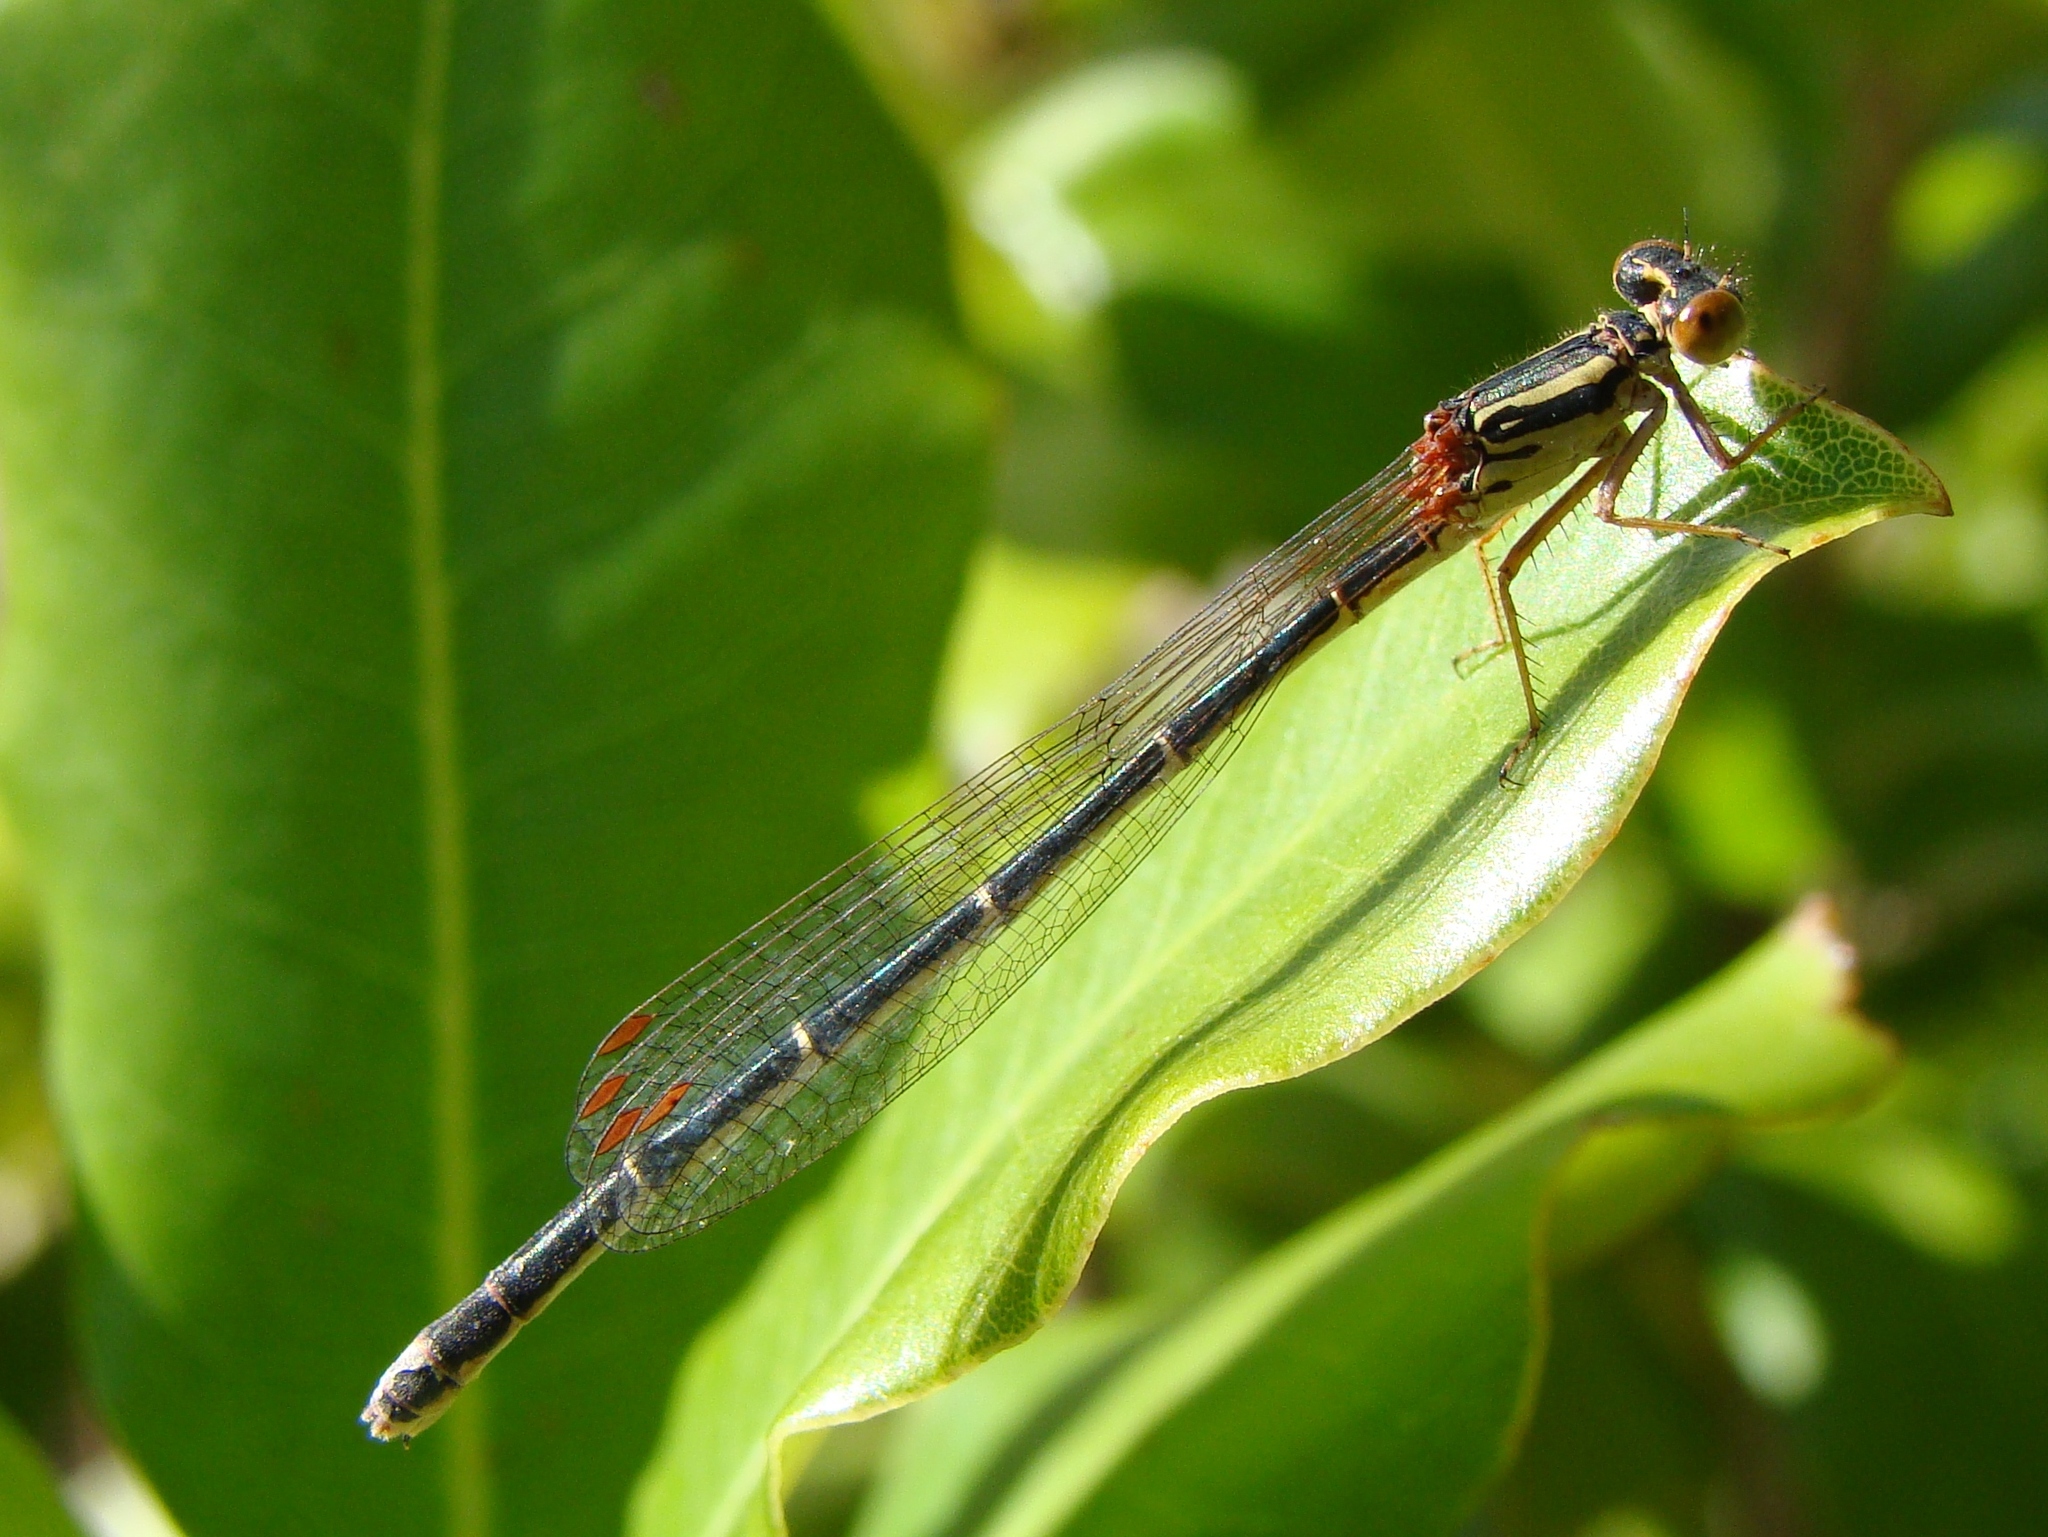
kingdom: Animalia
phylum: Arthropoda
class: Insecta
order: Odonata
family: Coenagrionidae
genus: Xanthocnemis
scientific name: Xanthocnemis zealandica
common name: Common redcoat damselfly
